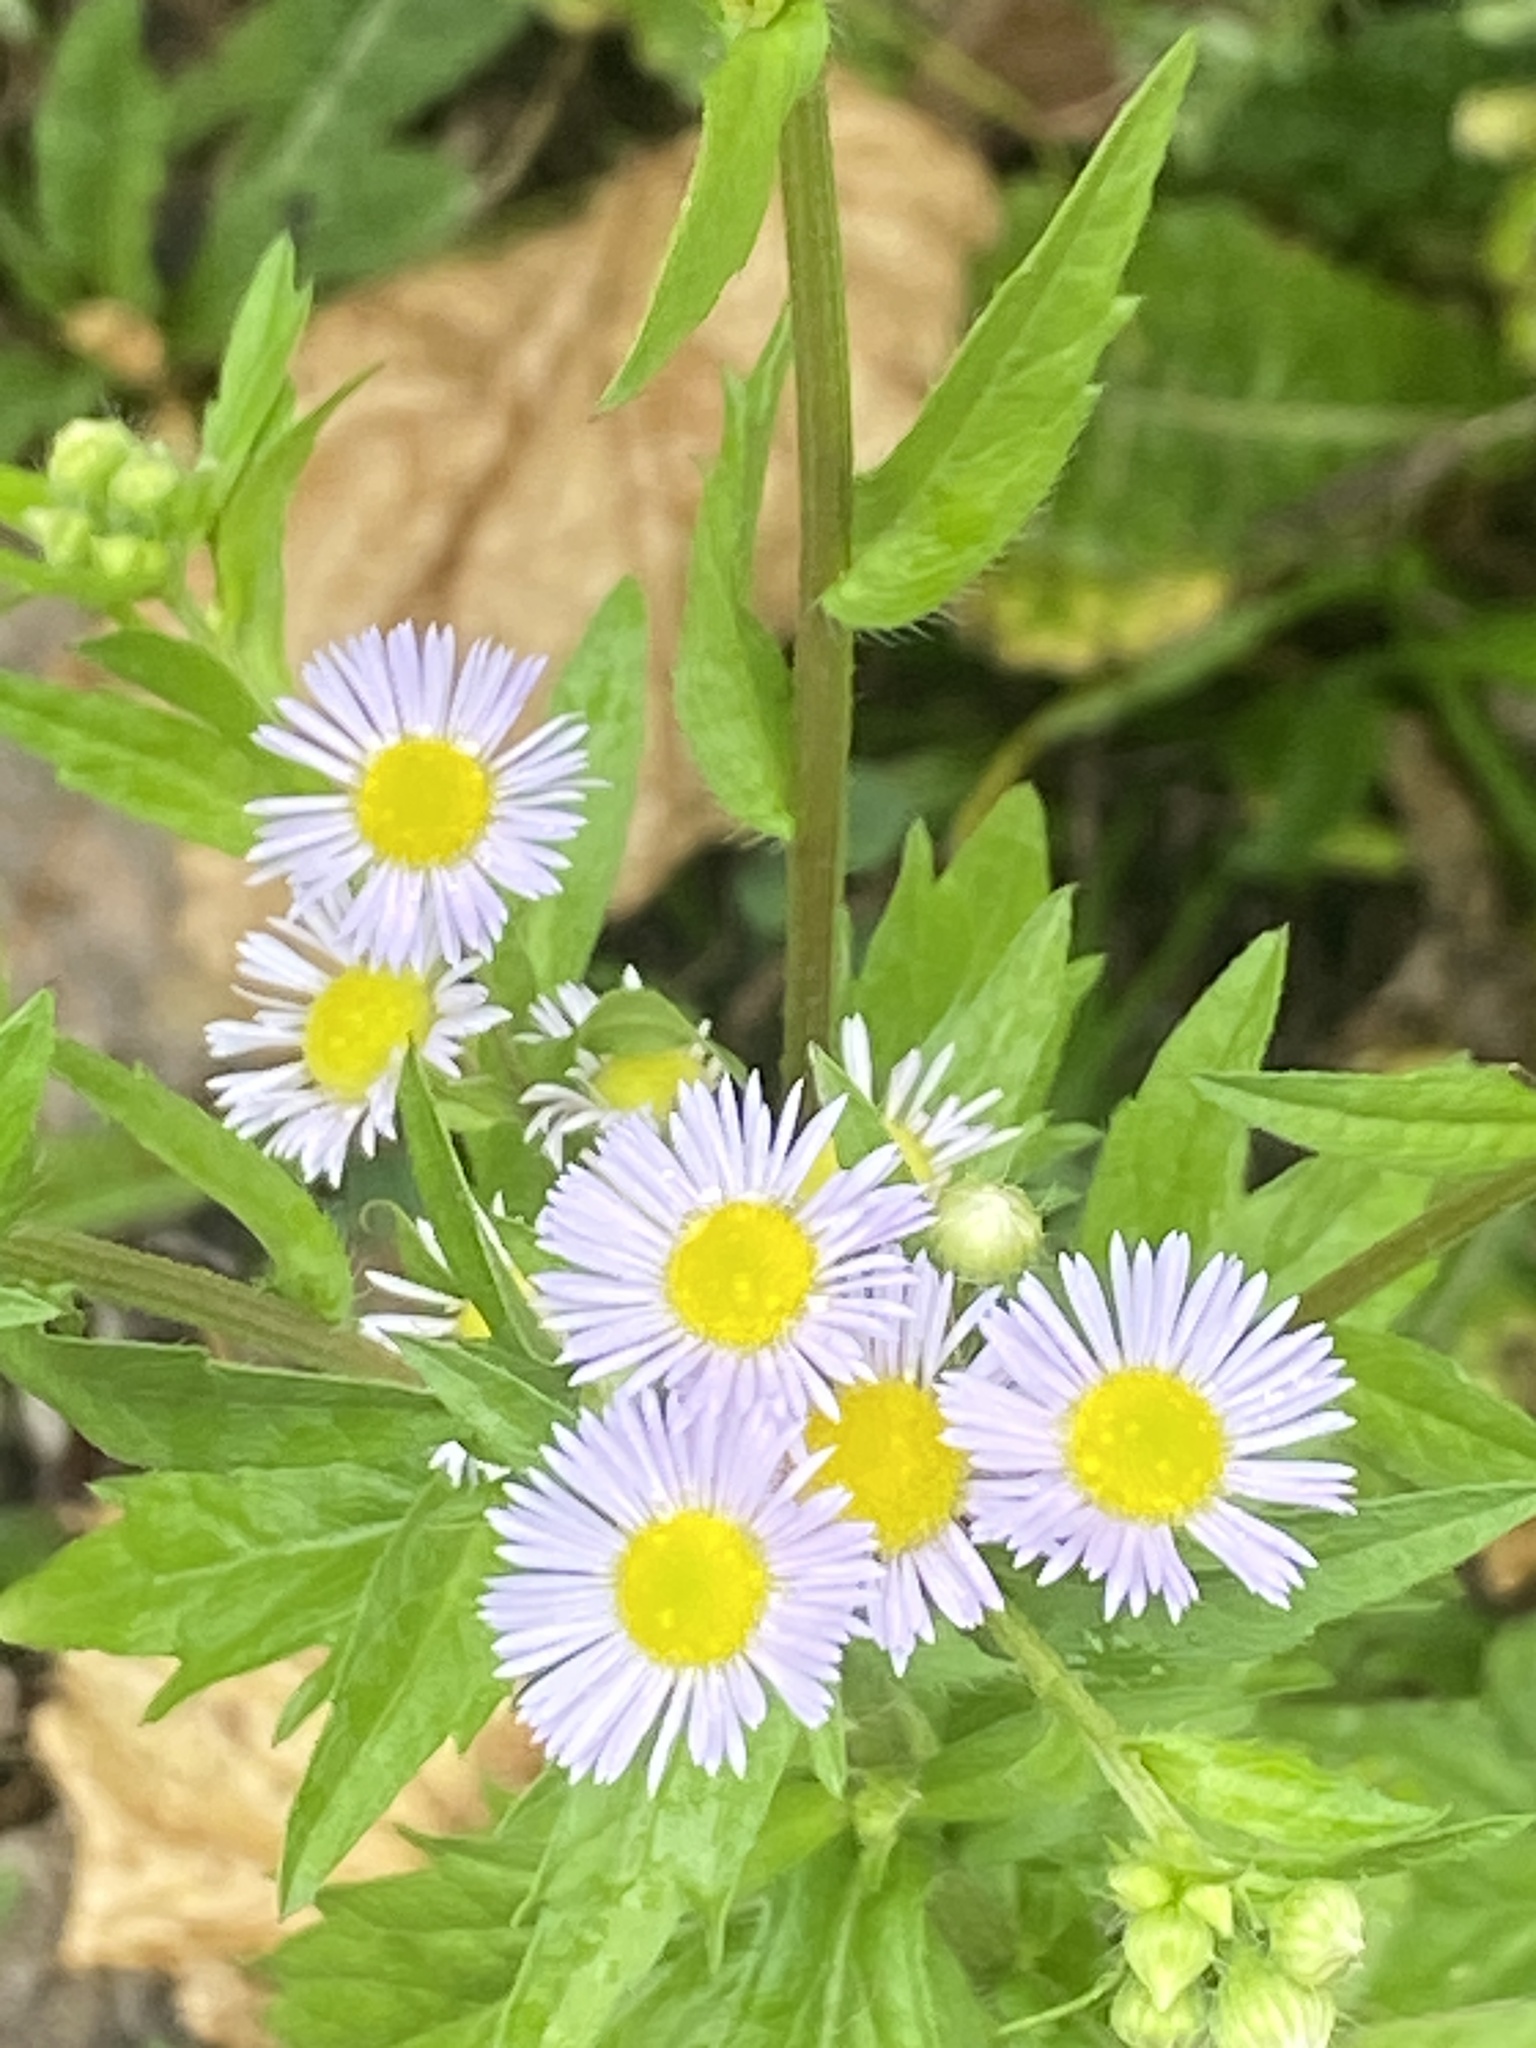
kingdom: Plantae
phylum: Tracheophyta
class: Magnoliopsida
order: Asterales
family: Asteraceae
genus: Erigeron
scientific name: Erigeron annuus
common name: Tall fleabane
